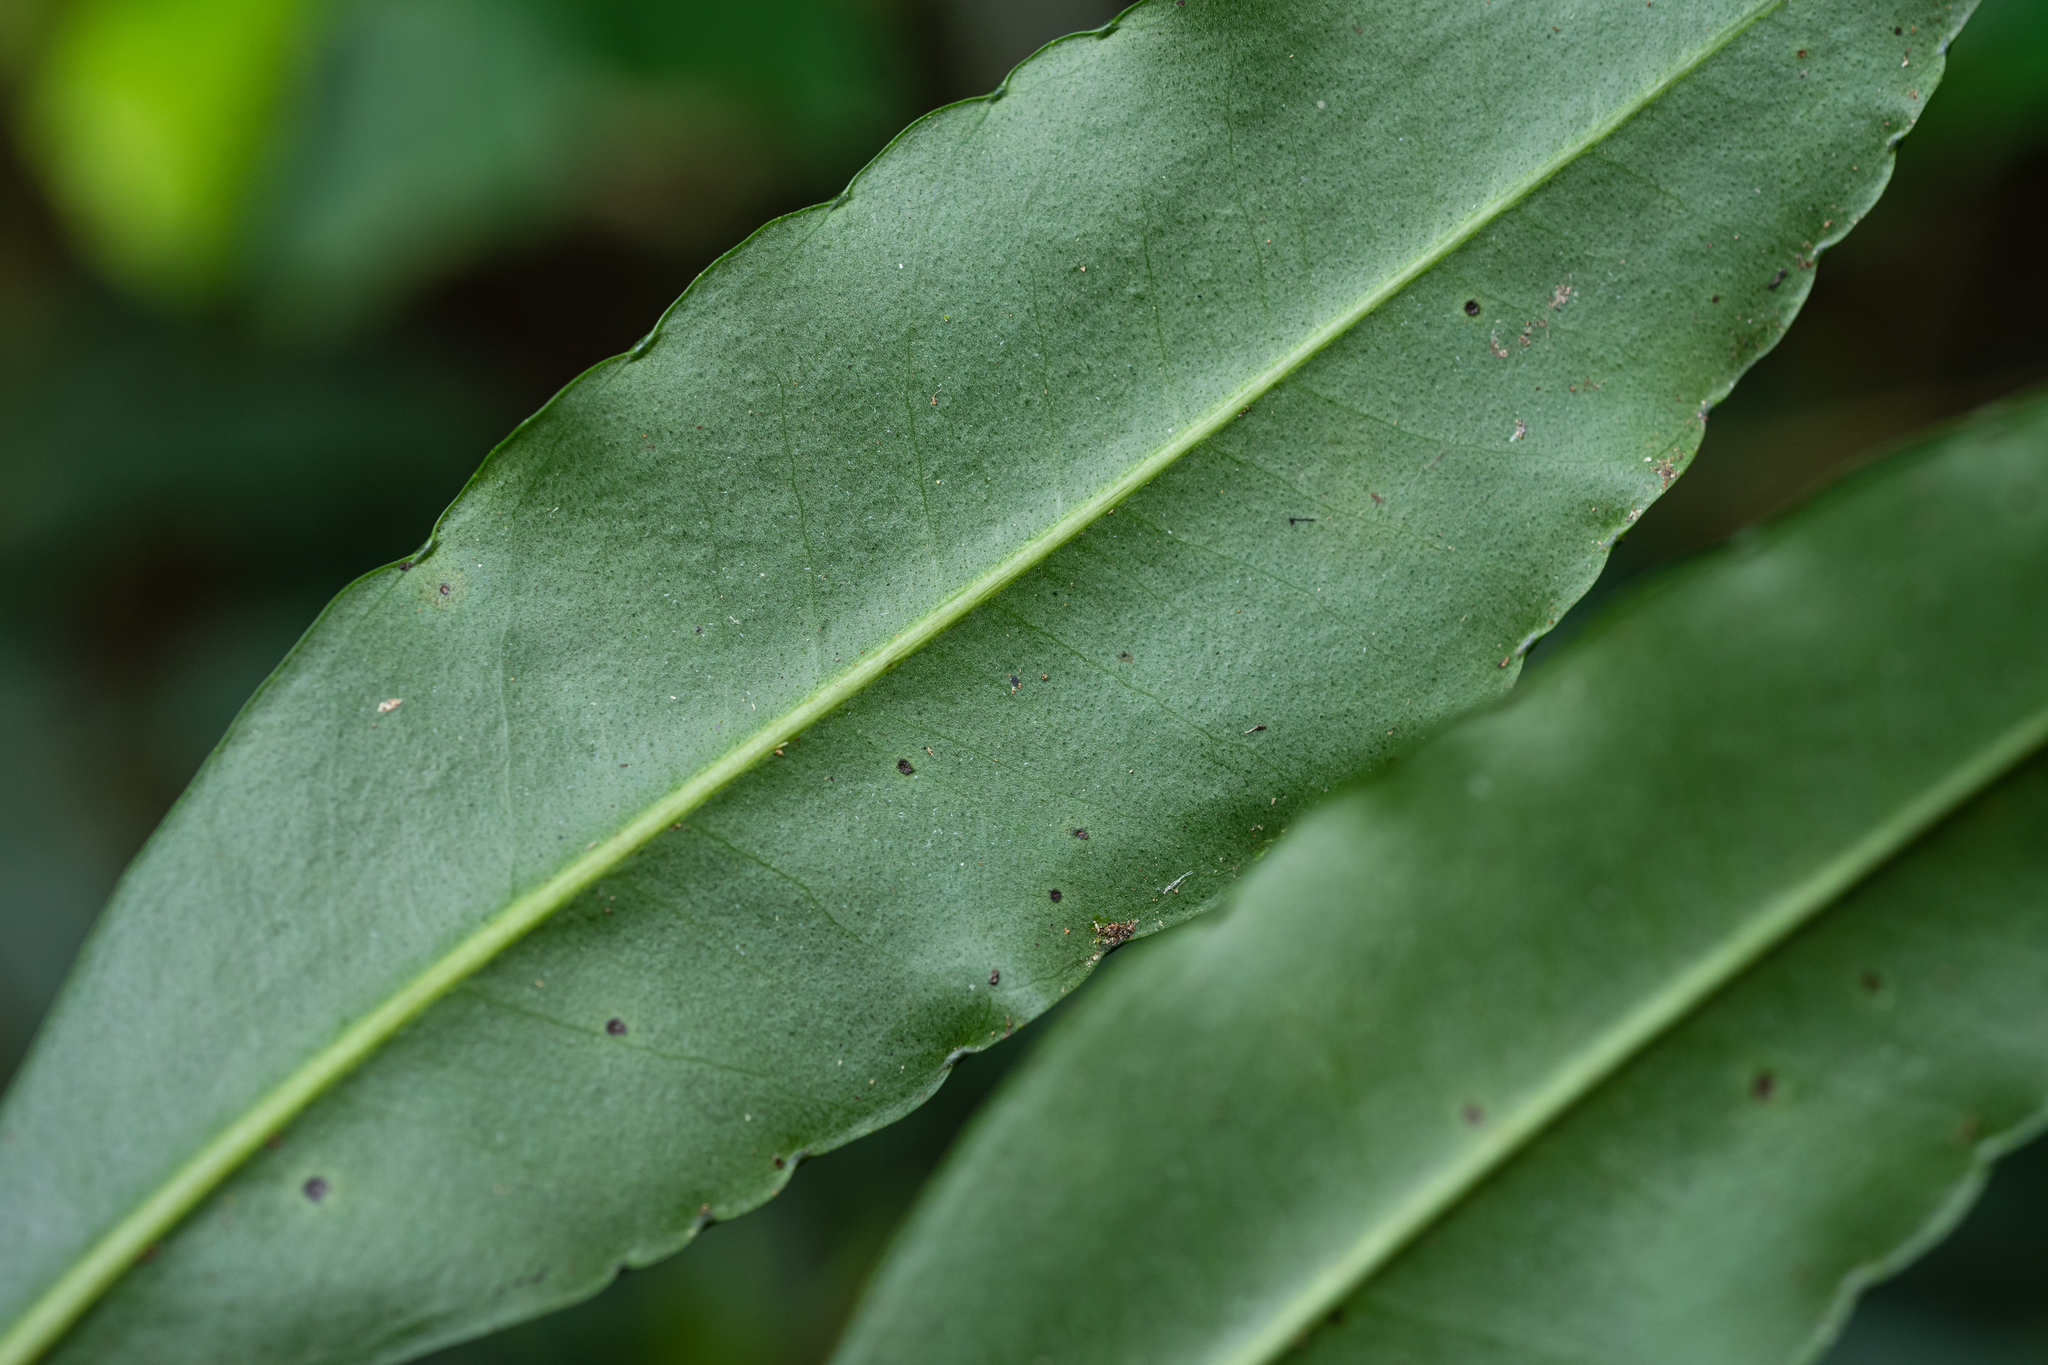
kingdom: Plantae
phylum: Tracheophyta
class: Magnoliopsida
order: Ericales
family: Primulaceae
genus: Ardisia
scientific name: Ardisia polysticta
